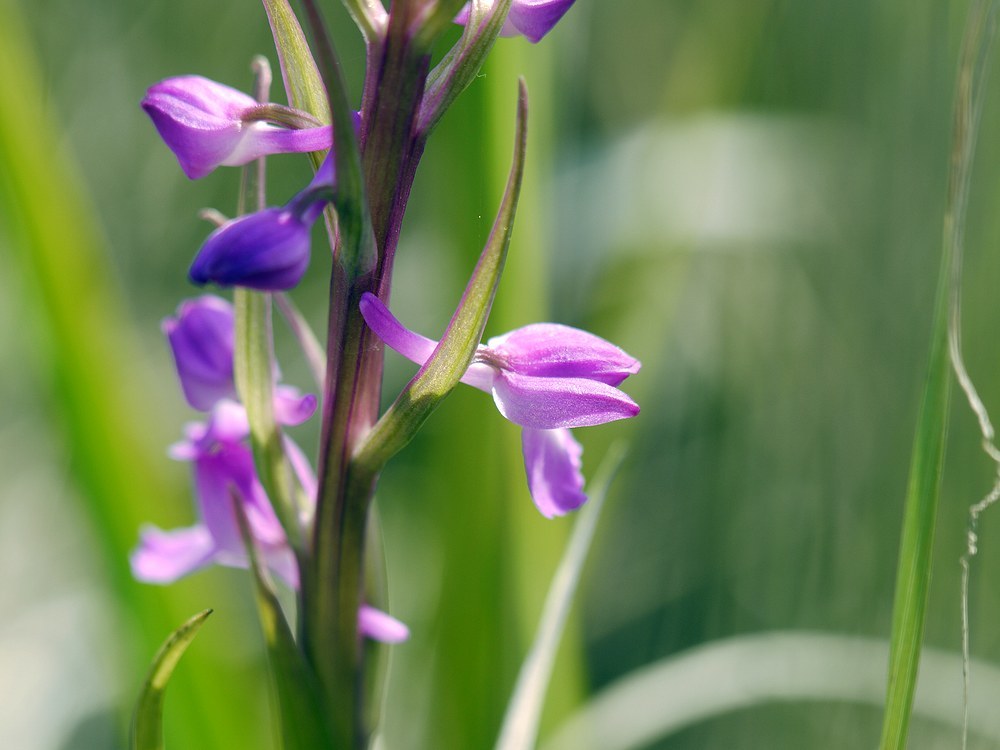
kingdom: Plantae
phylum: Tracheophyta
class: Liliopsida
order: Asparagales
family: Orchidaceae
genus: Anacamptis
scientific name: Anacamptis palustris
